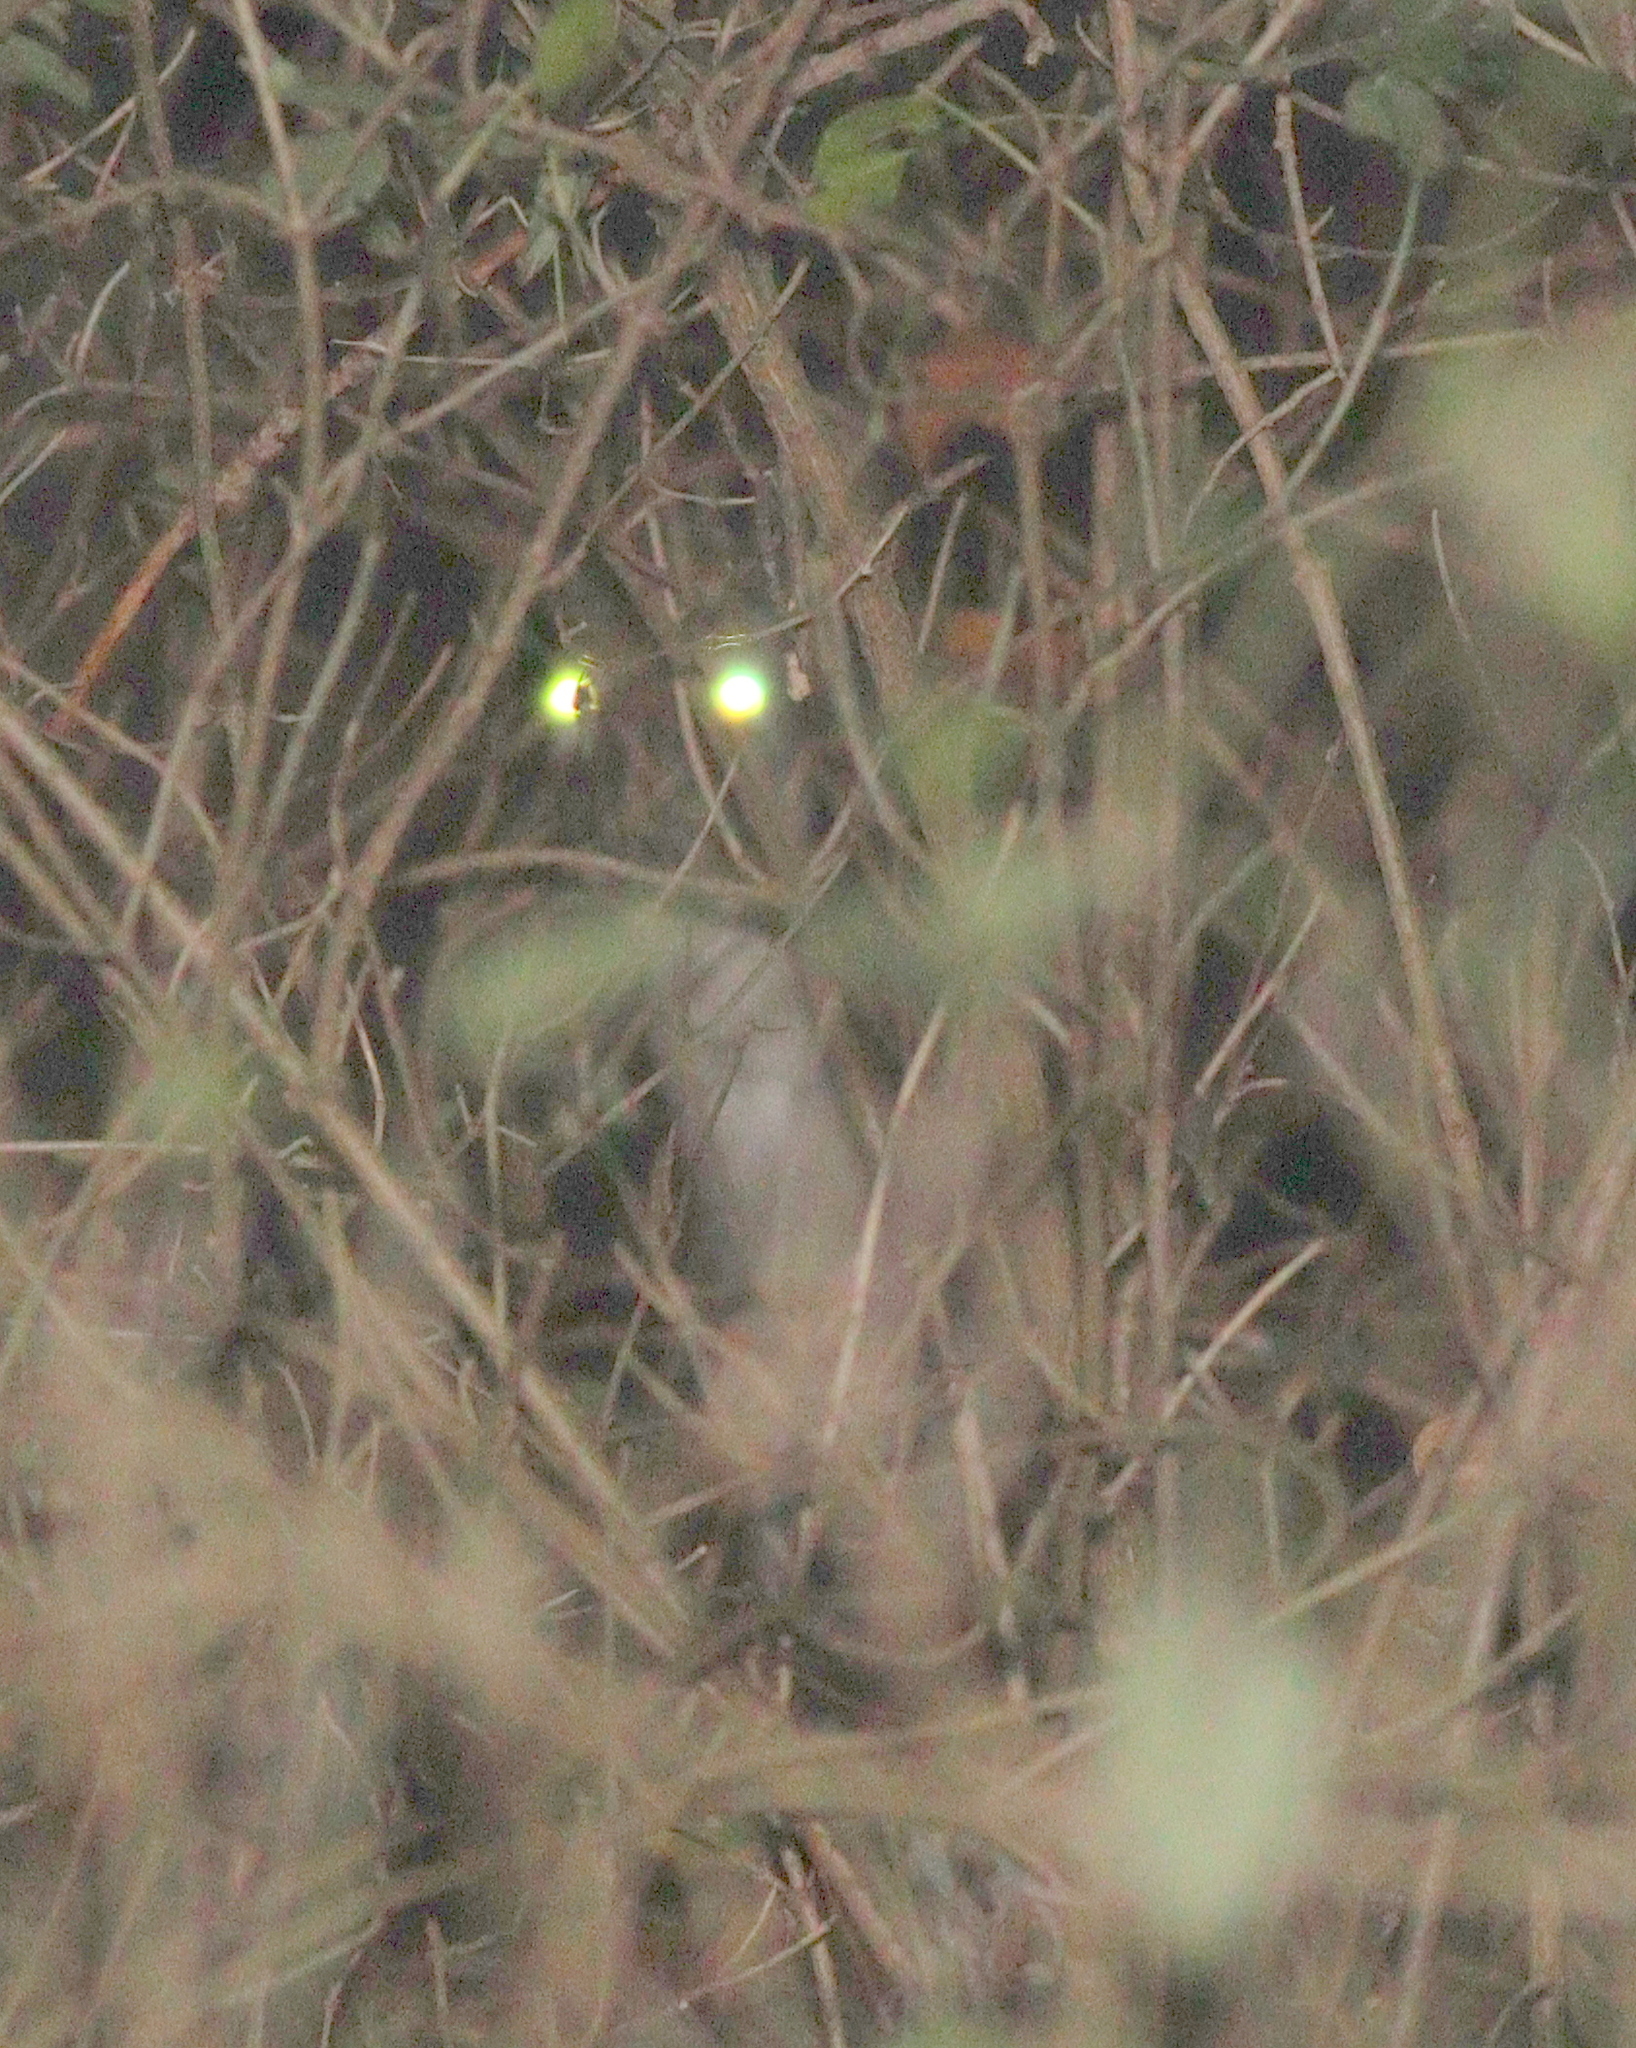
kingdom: Animalia
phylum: Chordata
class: Mammalia
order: Artiodactyla
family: Cervidae
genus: Capreolus
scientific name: Capreolus capreolus
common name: Western roe deer
